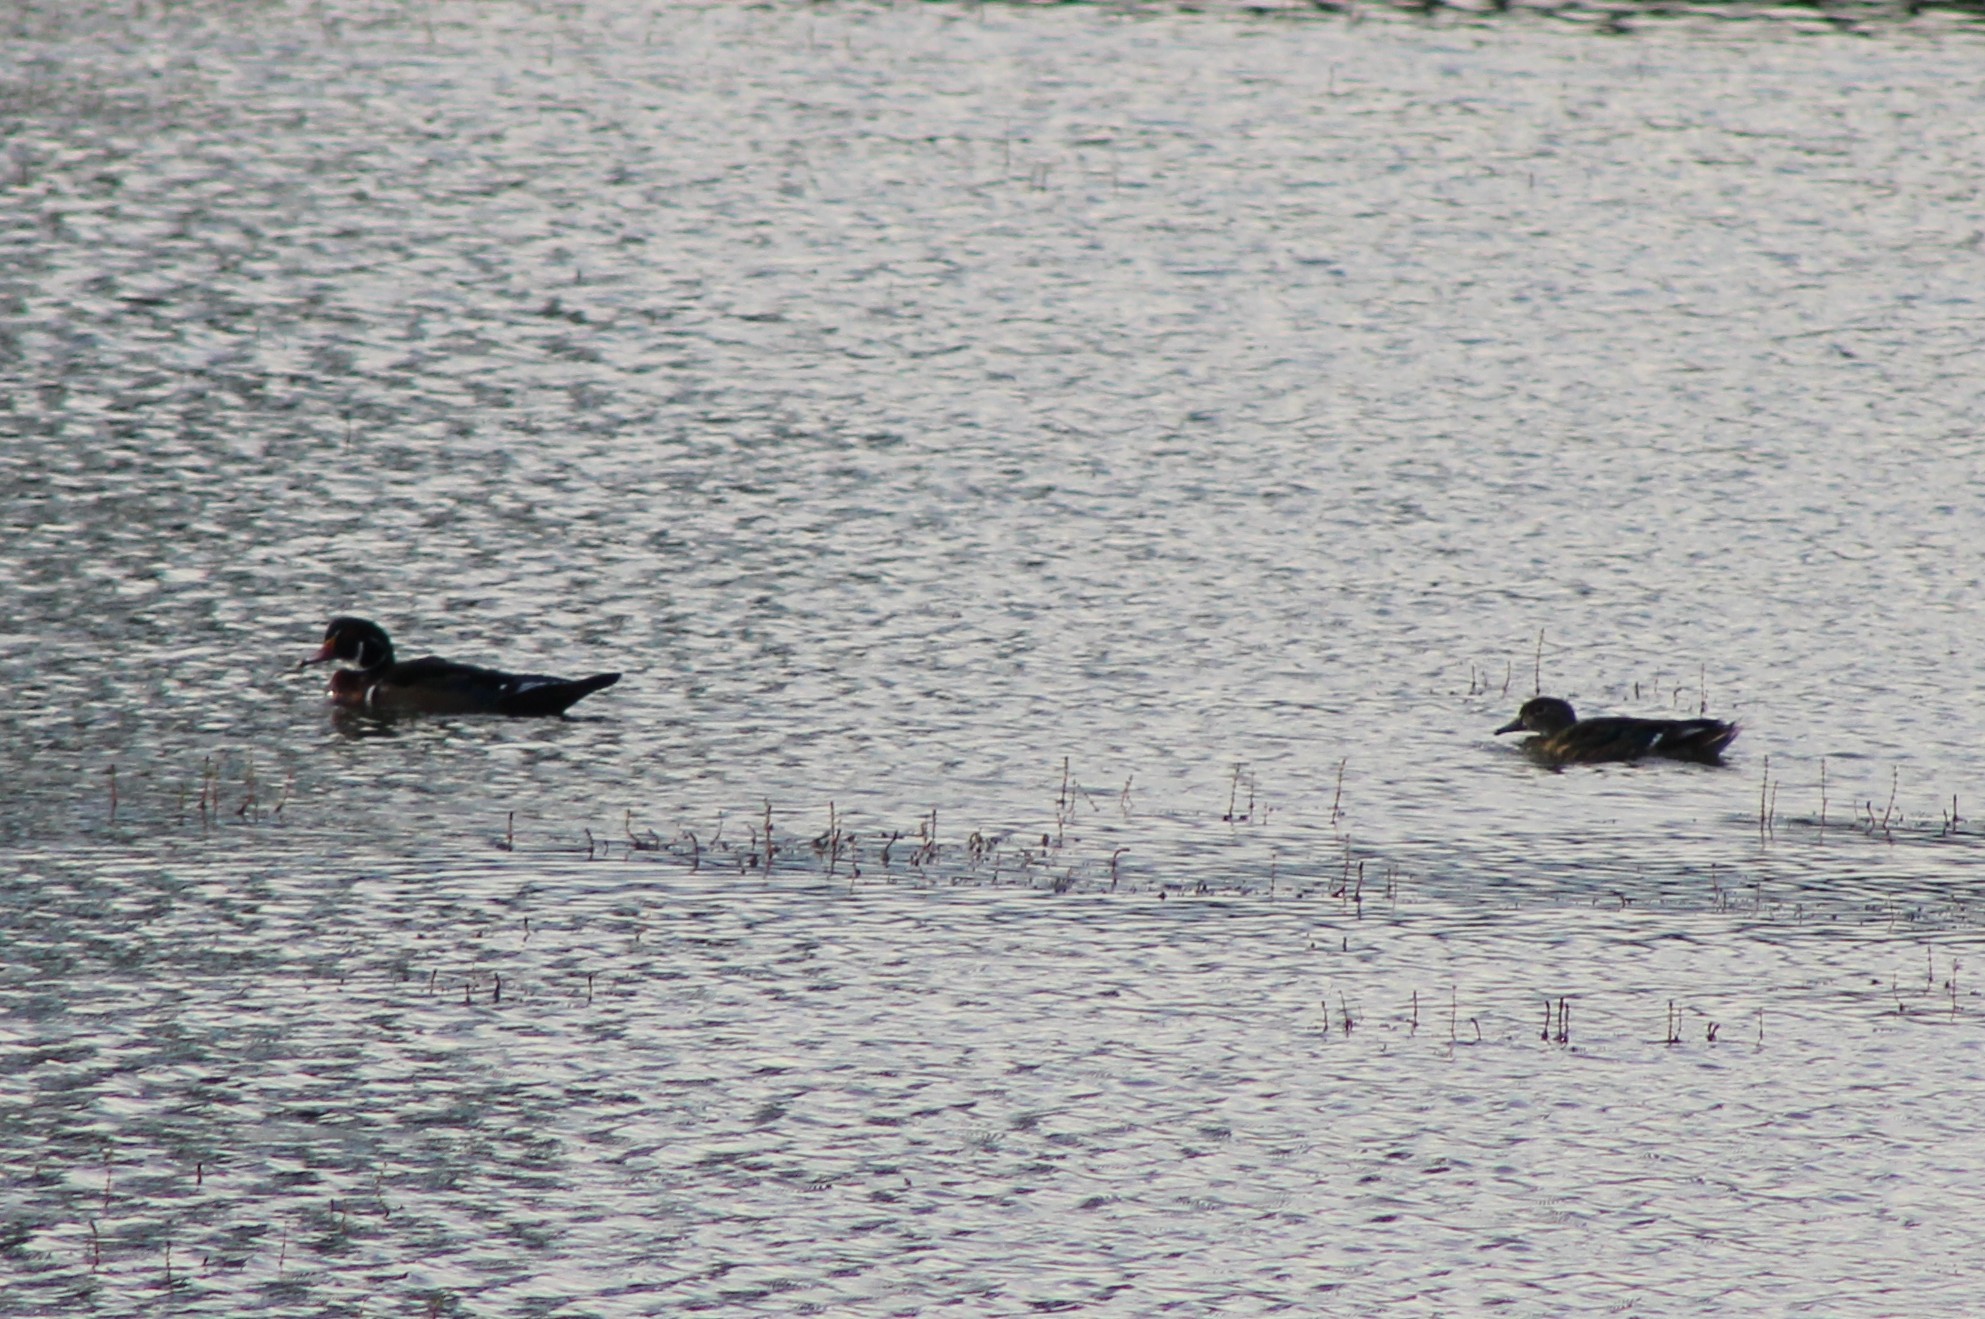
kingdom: Animalia
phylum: Chordata
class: Aves
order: Anseriformes
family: Anatidae
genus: Aix
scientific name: Aix sponsa
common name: Wood duck
